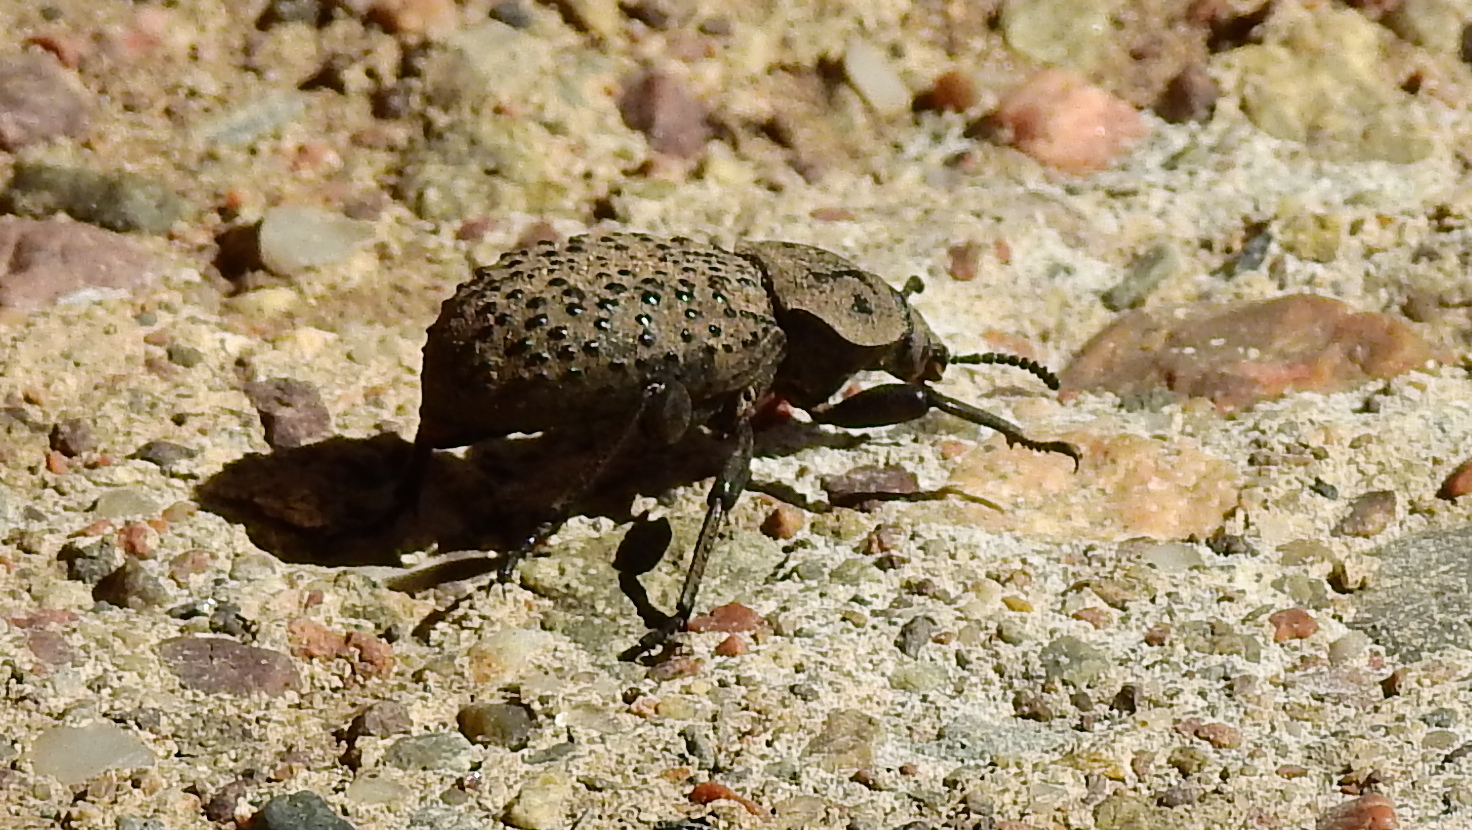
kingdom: Animalia
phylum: Arthropoda
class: Insecta
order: Coleoptera
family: Tenebrionidae
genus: Scotobius
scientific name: Scotobius pilularius
